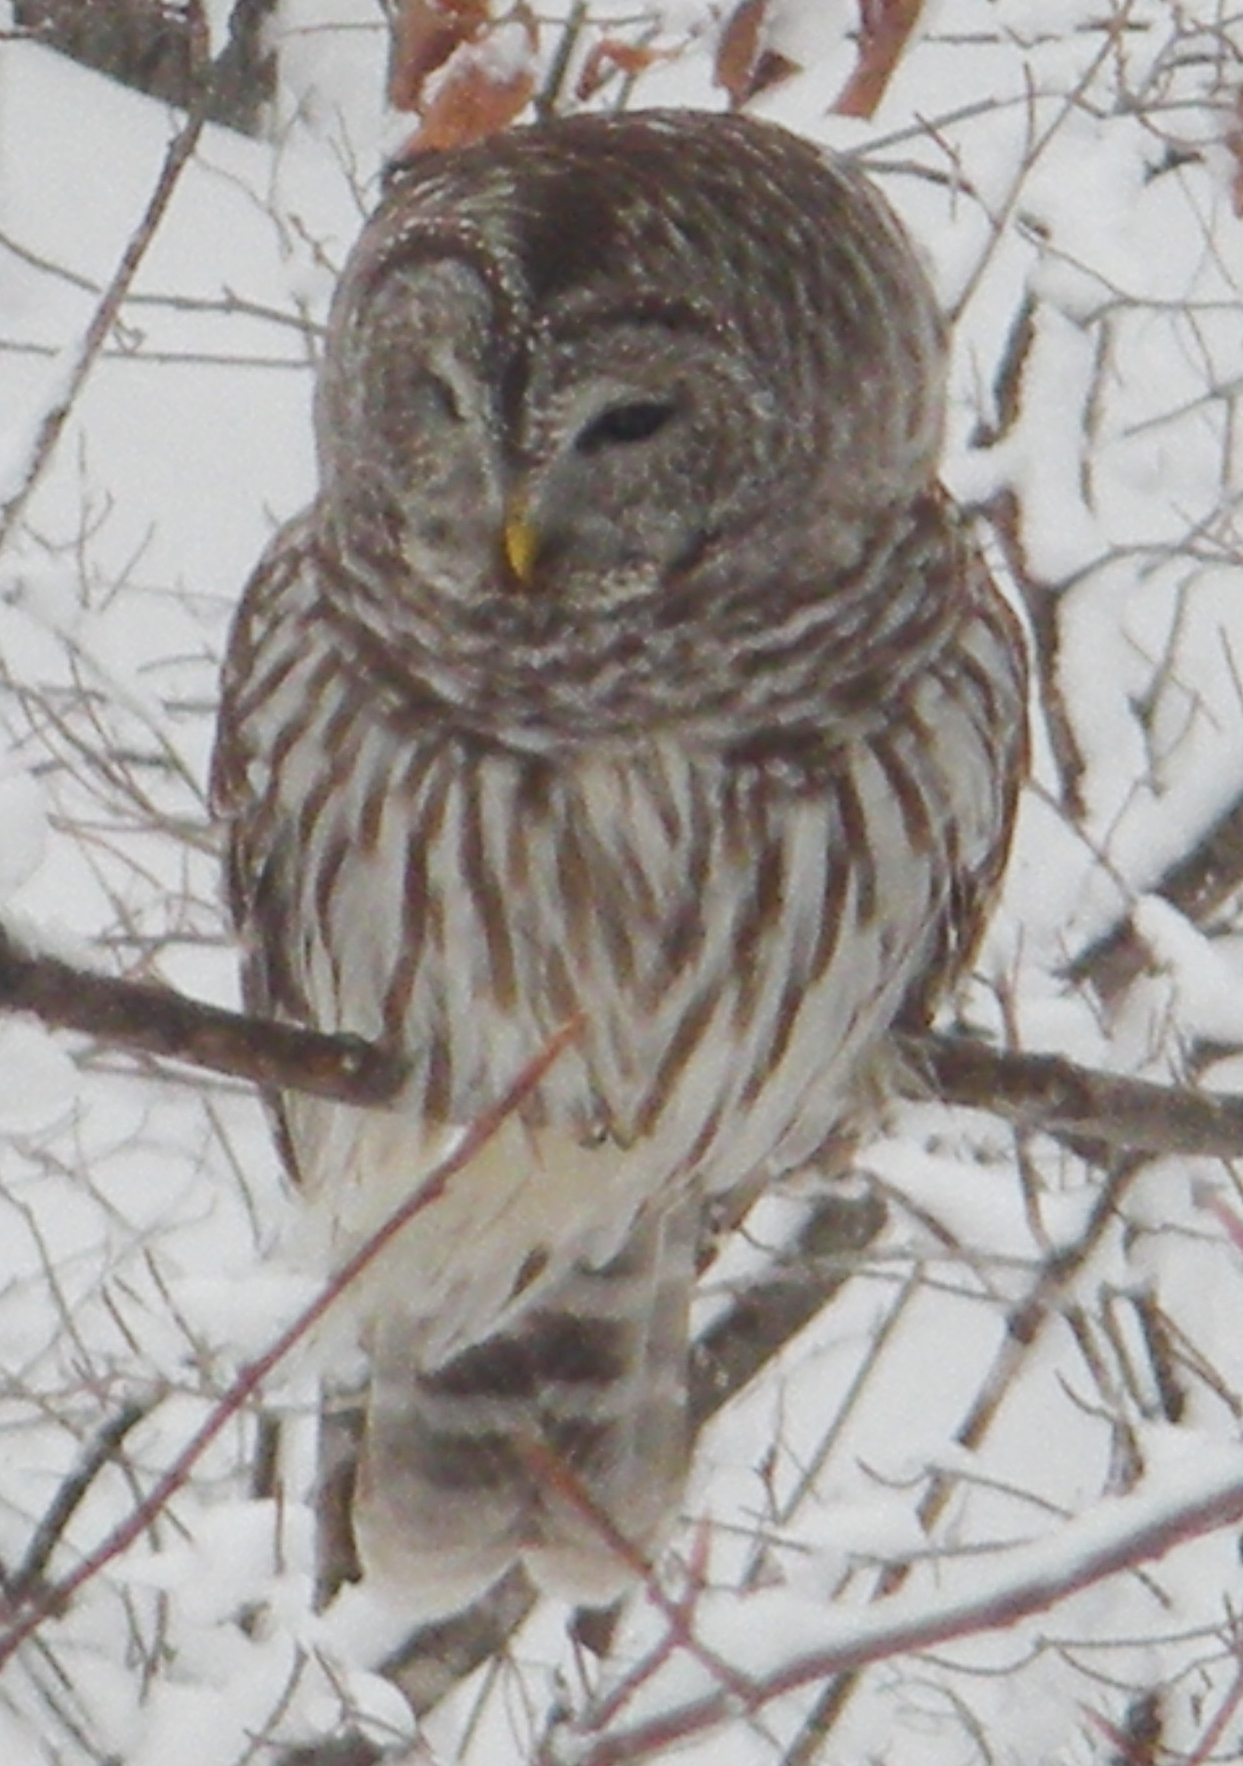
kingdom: Animalia
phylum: Chordata
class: Aves
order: Strigiformes
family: Strigidae
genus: Strix
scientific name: Strix varia
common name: Barred owl
